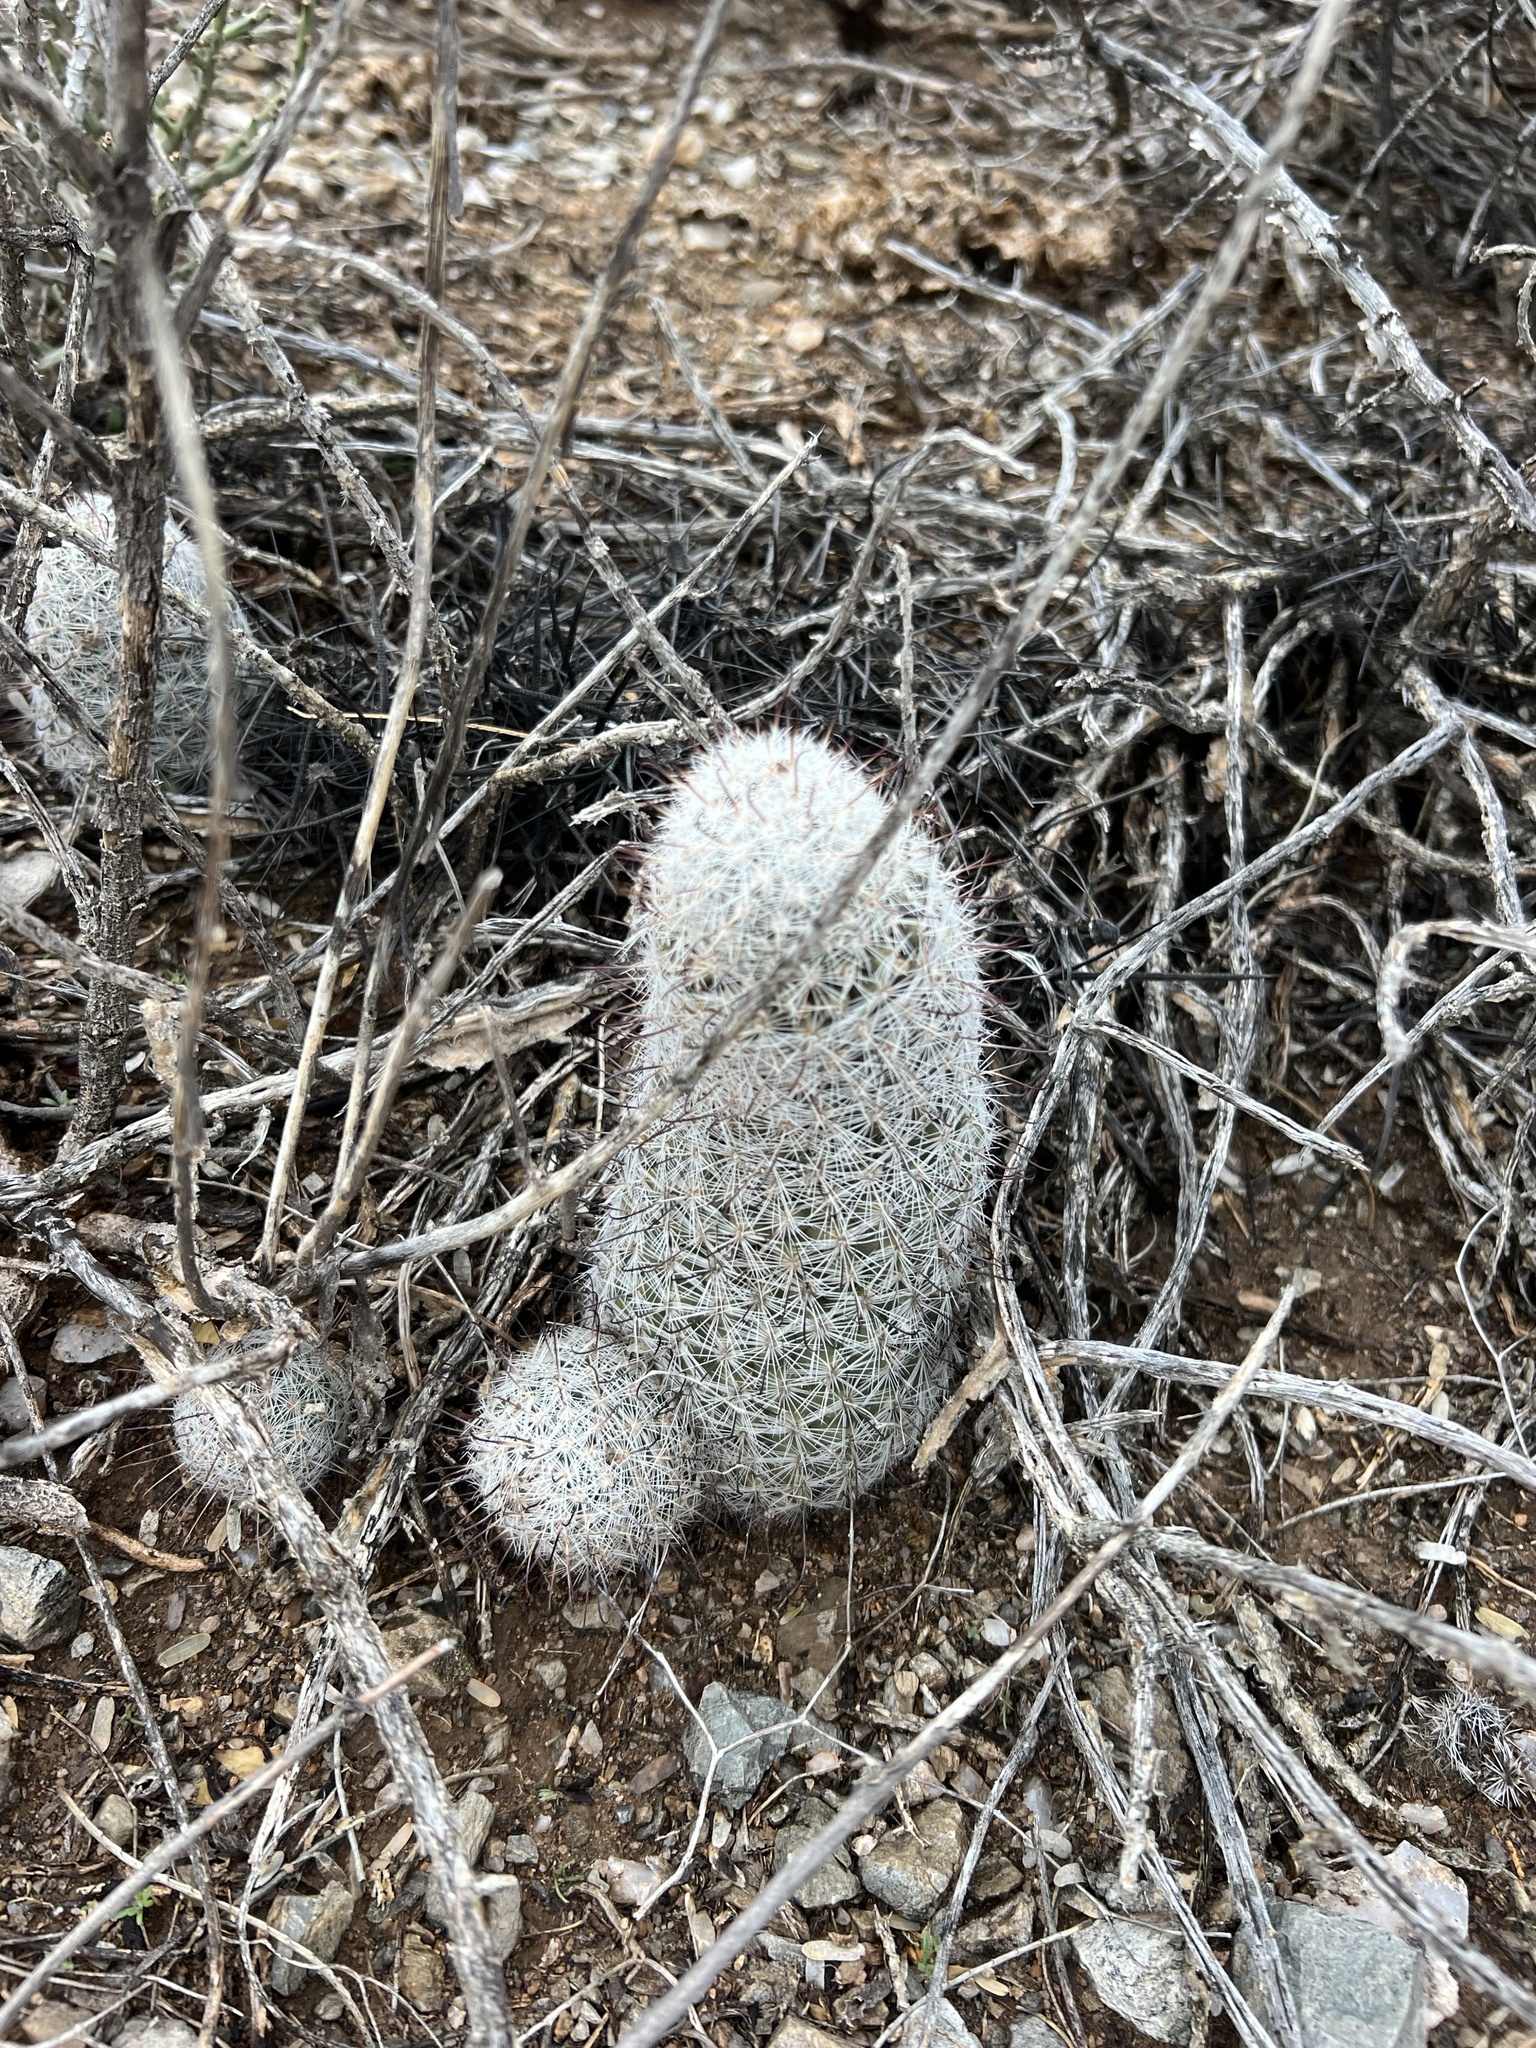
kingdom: Plantae
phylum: Tracheophyta
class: Magnoliopsida
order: Caryophyllales
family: Cactaceae
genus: Cochemiea
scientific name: Cochemiea grahamii
